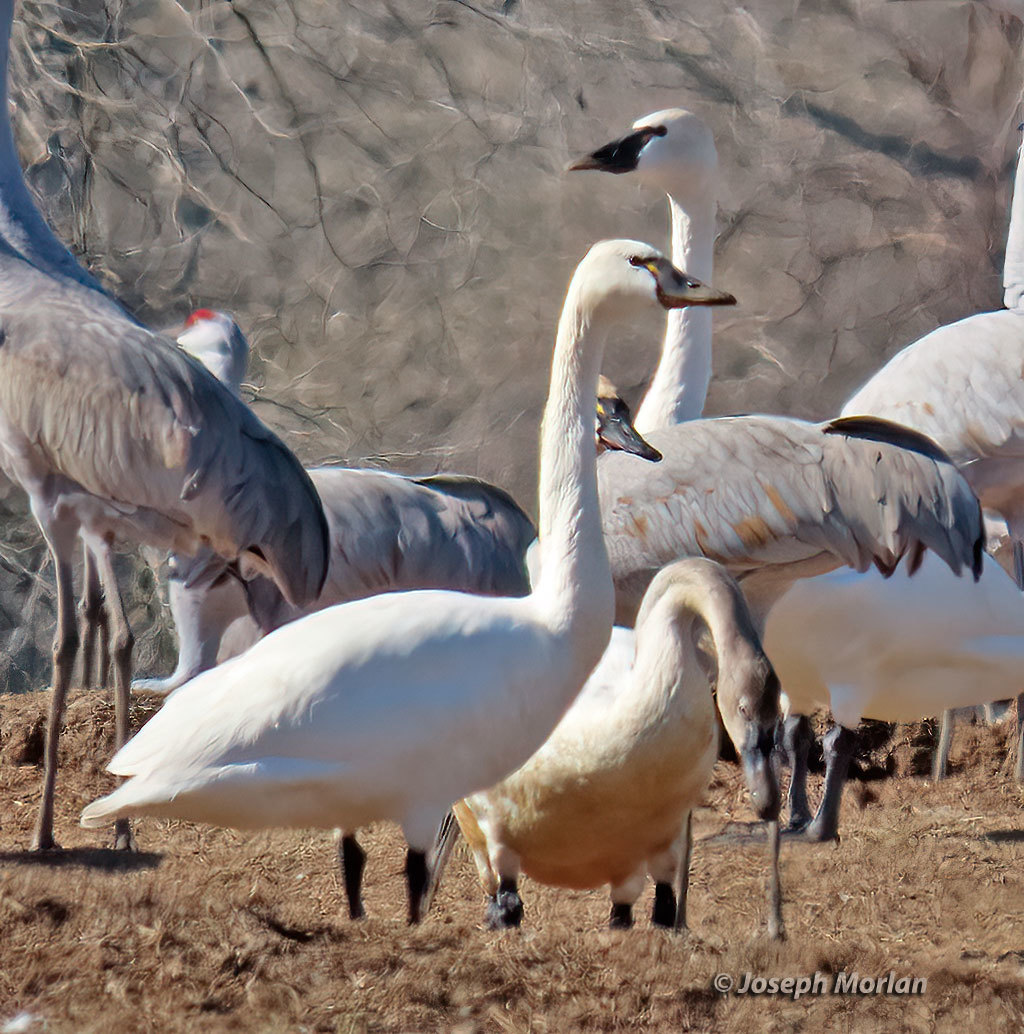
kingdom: Animalia
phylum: Chordata
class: Aves
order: Anseriformes
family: Anatidae
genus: Cygnus
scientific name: Cygnus buccinator
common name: Trumpeter swan
